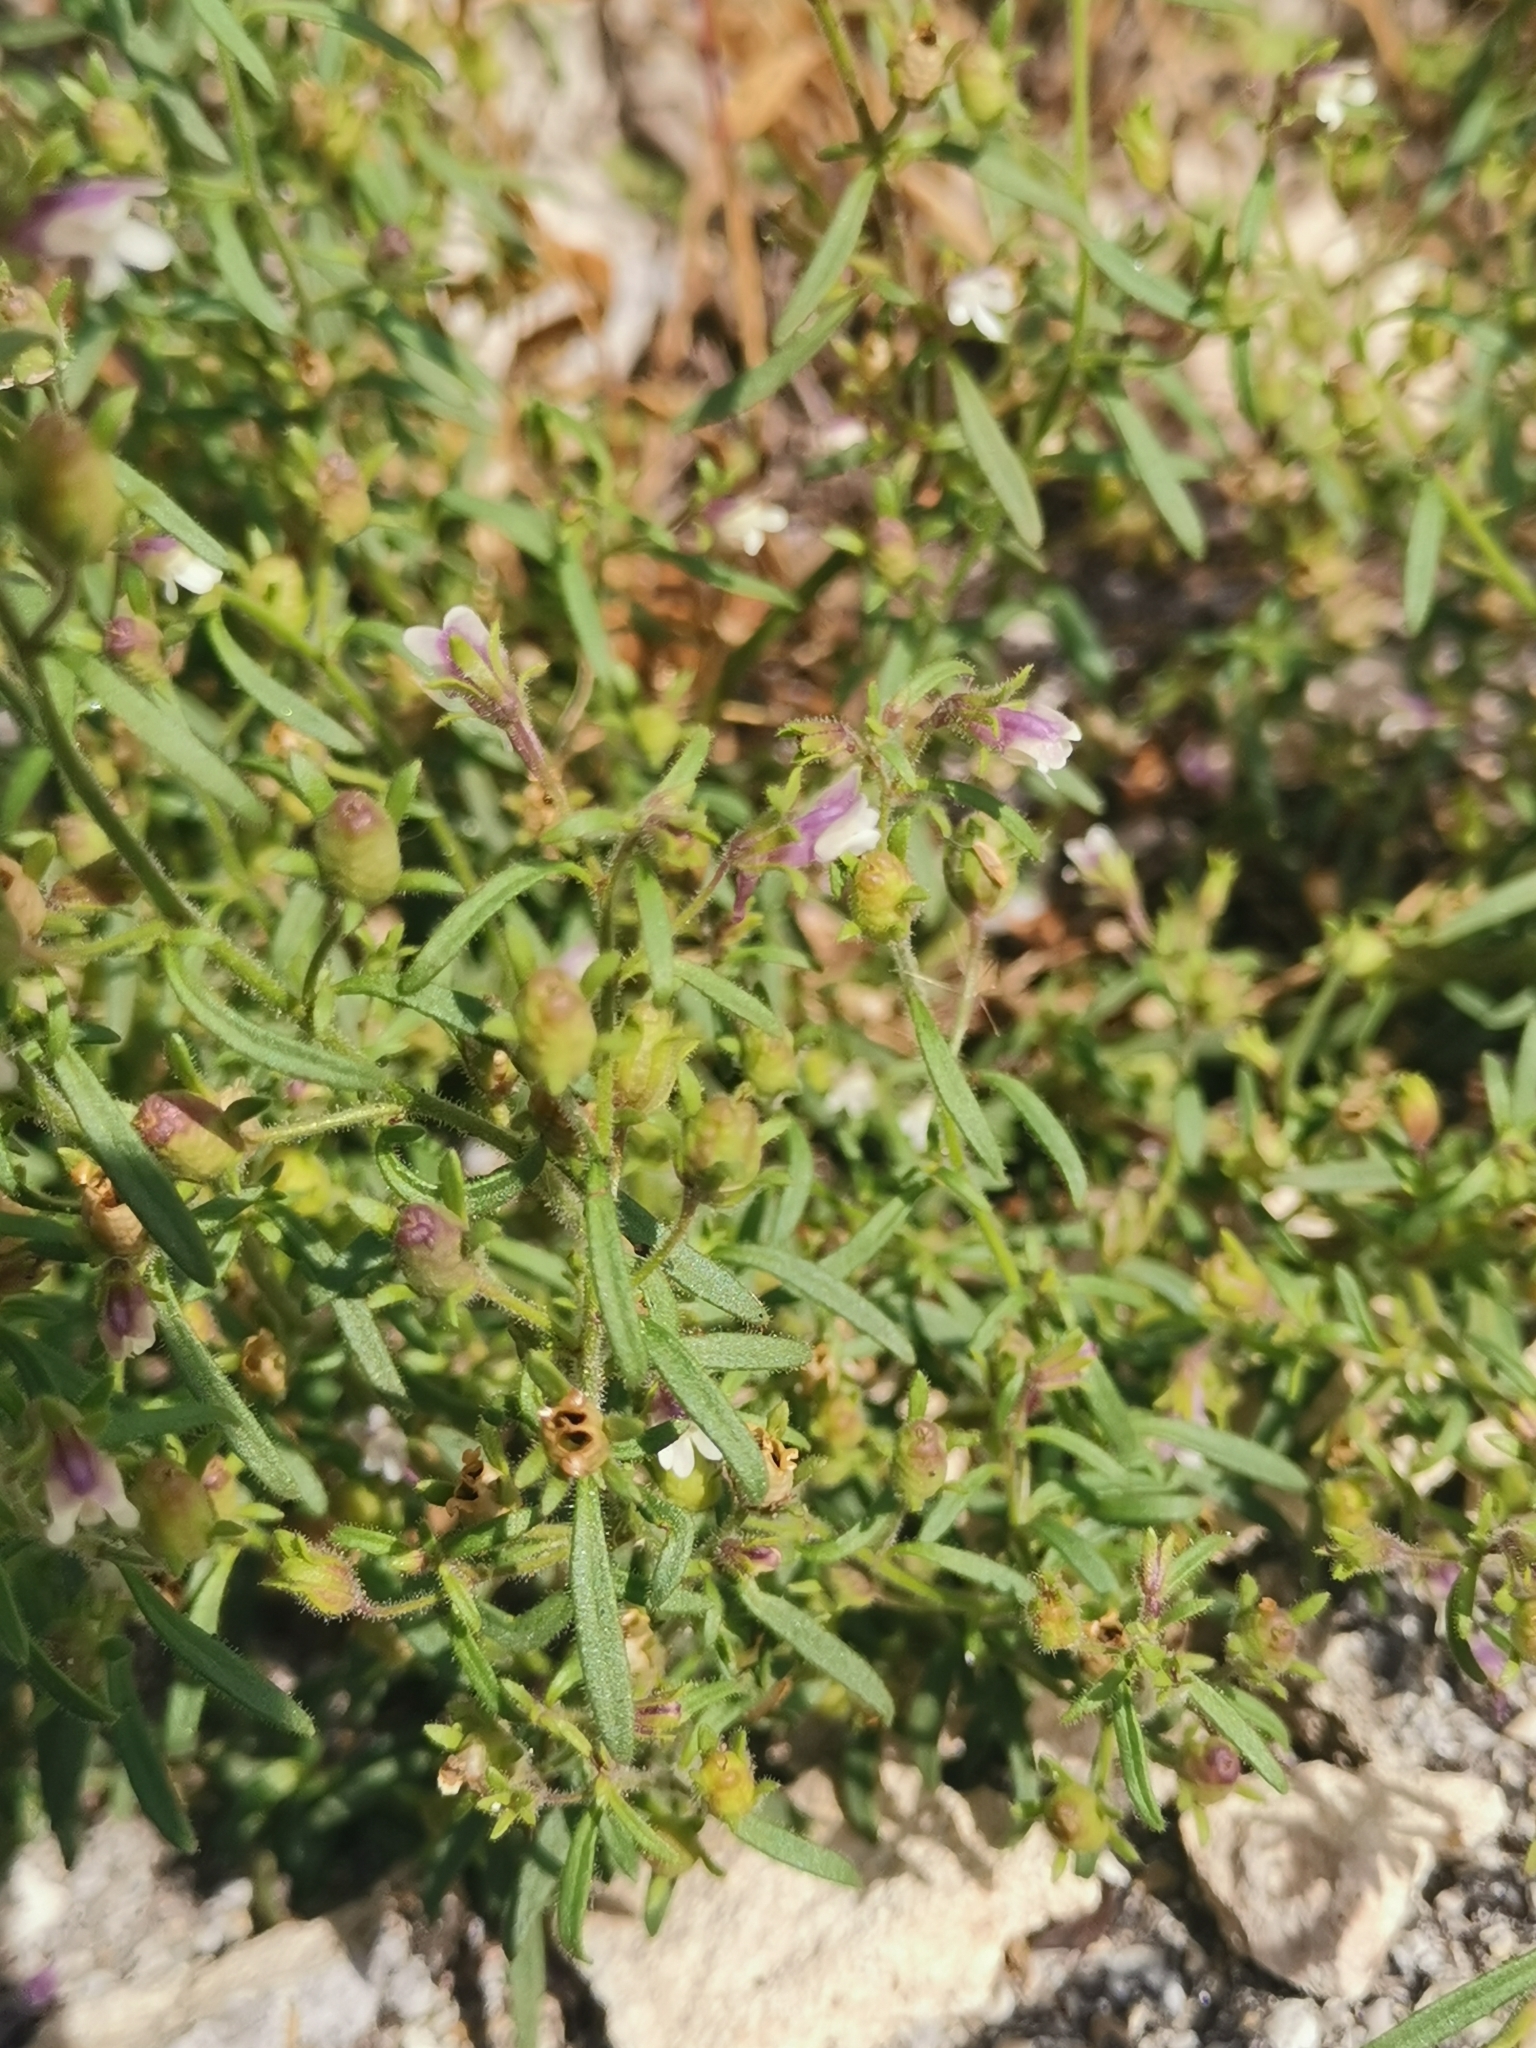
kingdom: Plantae
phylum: Tracheophyta
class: Magnoliopsida
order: Lamiales
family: Plantaginaceae
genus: Chaenorhinum
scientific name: Chaenorhinum minus
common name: Dwarf snapdragon
